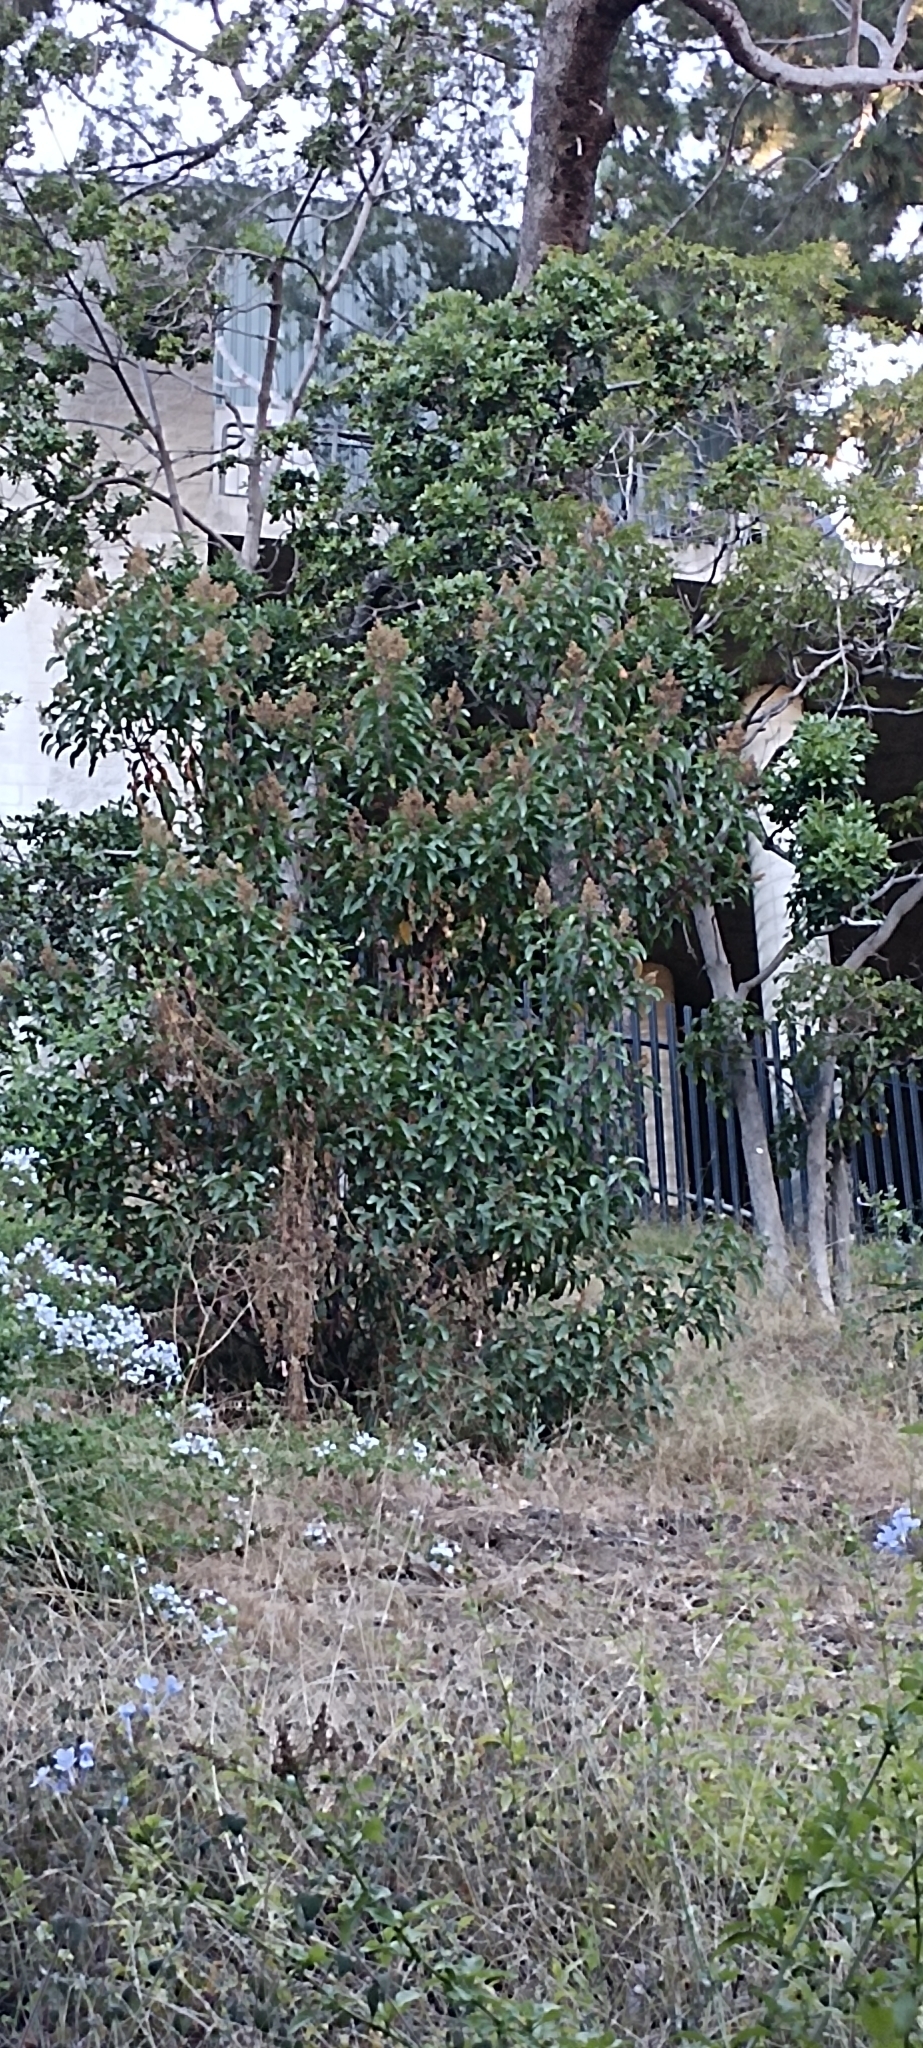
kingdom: Plantae
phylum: Tracheophyta
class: Magnoliopsida
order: Sapindales
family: Anacardiaceae
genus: Malosma
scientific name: Malosma laurina
